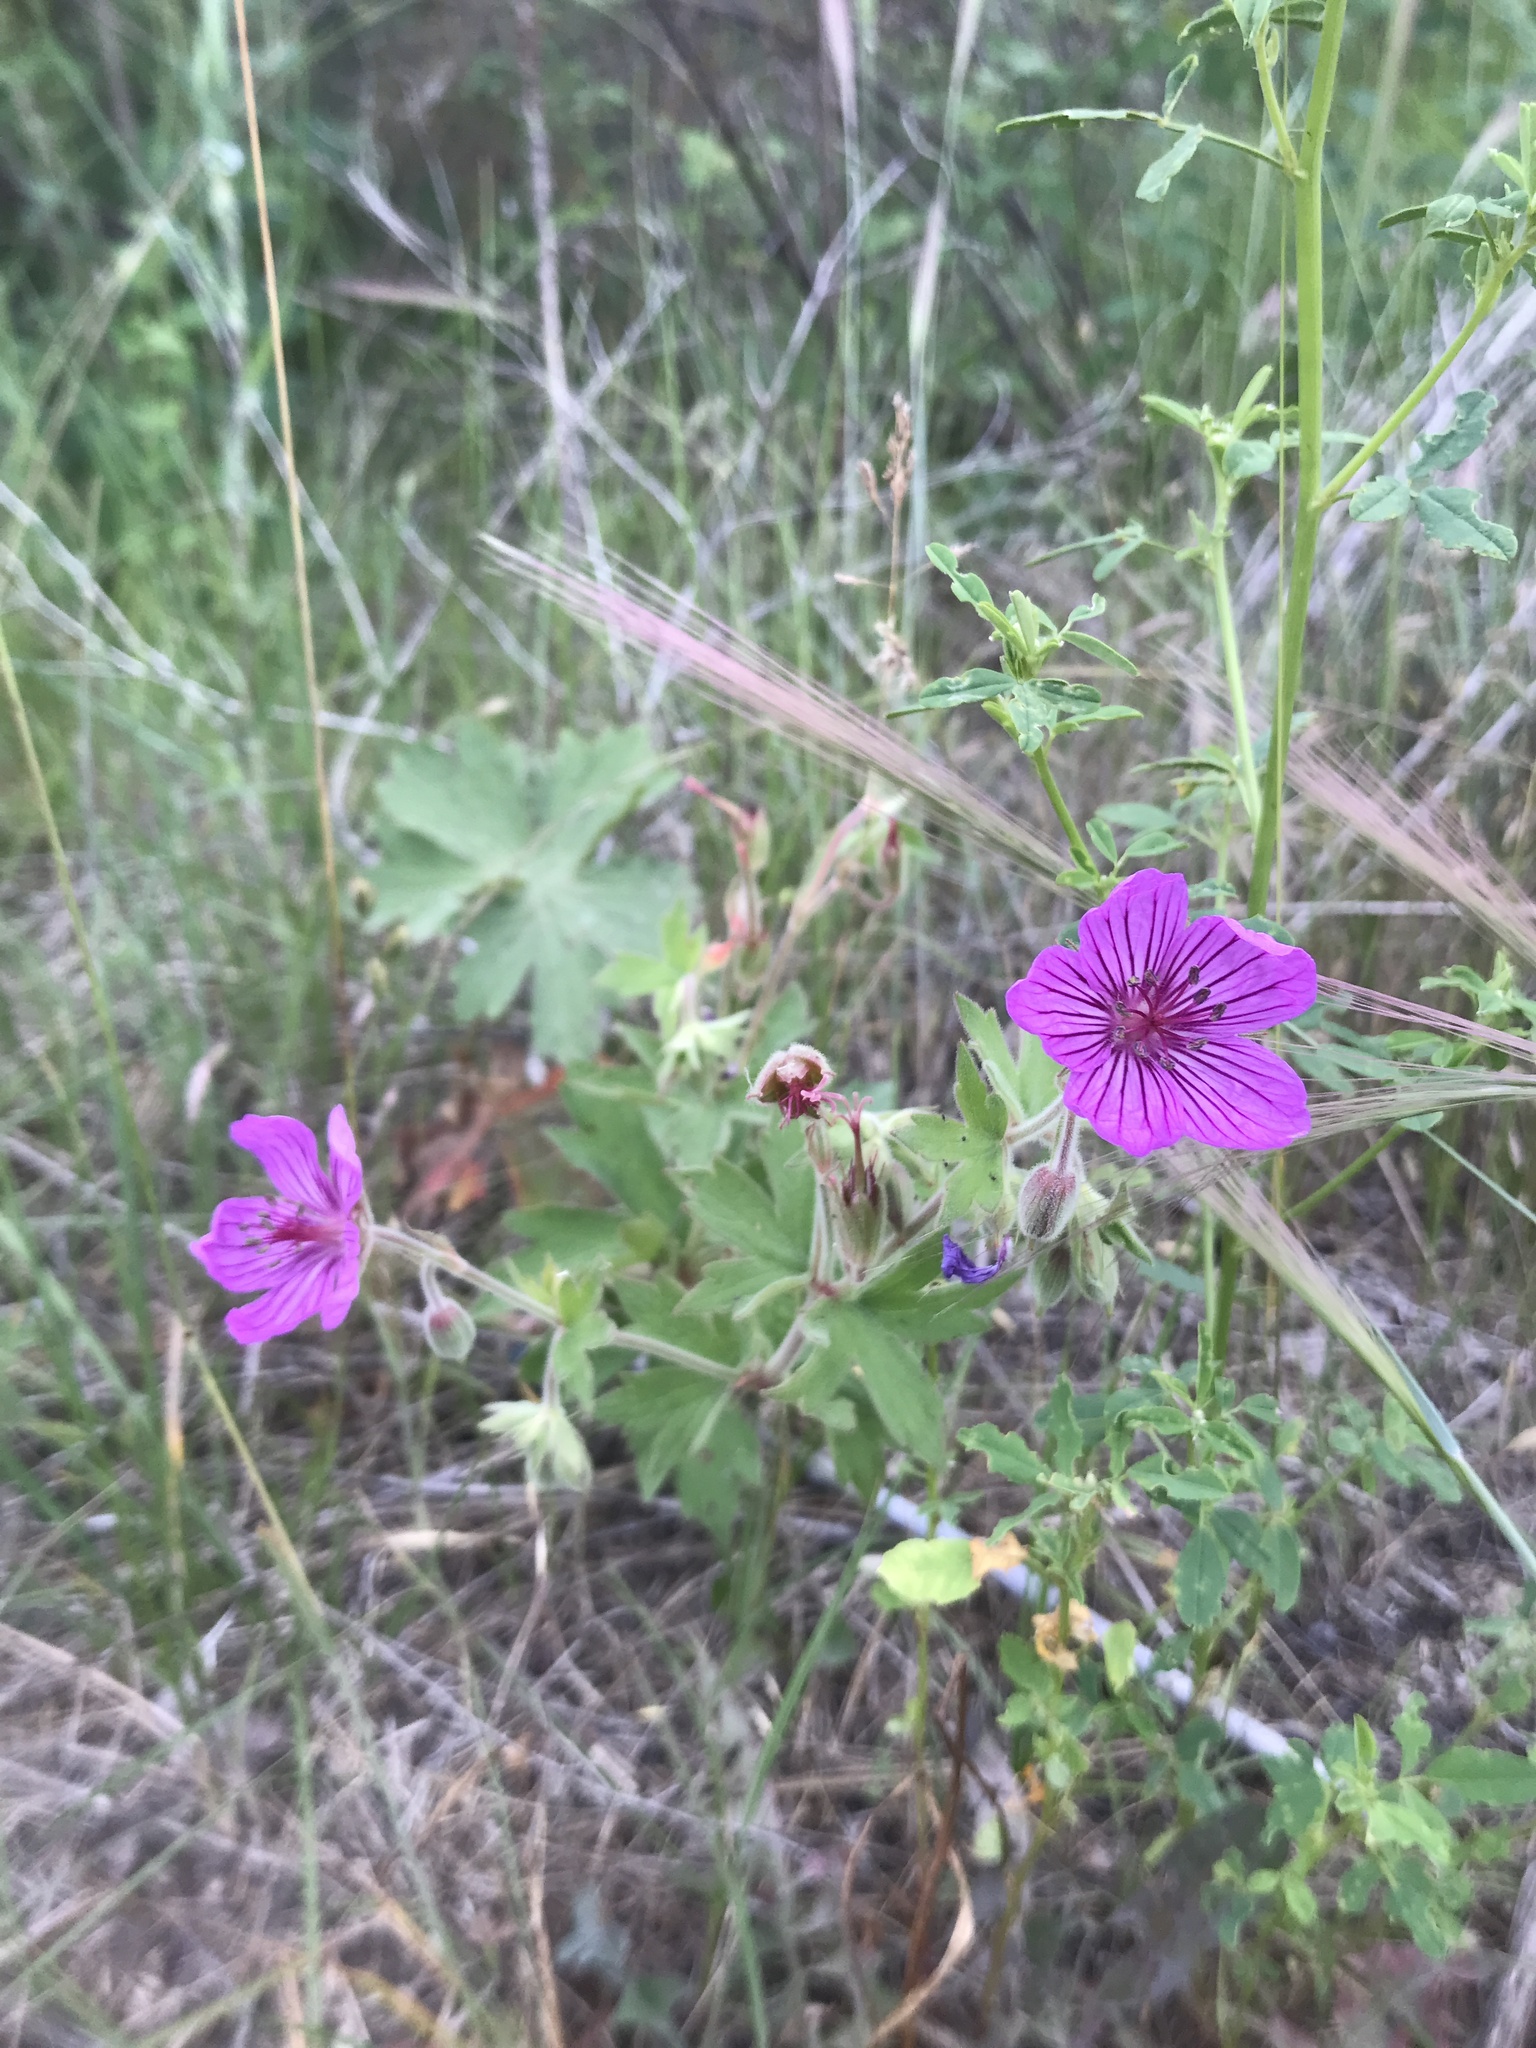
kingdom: Plantae
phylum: Tracheophyta
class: Magnoliopsida
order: Geraniales
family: Geraniaceae
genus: Geranium
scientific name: Geranium viscosissimum
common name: Purple geranium
